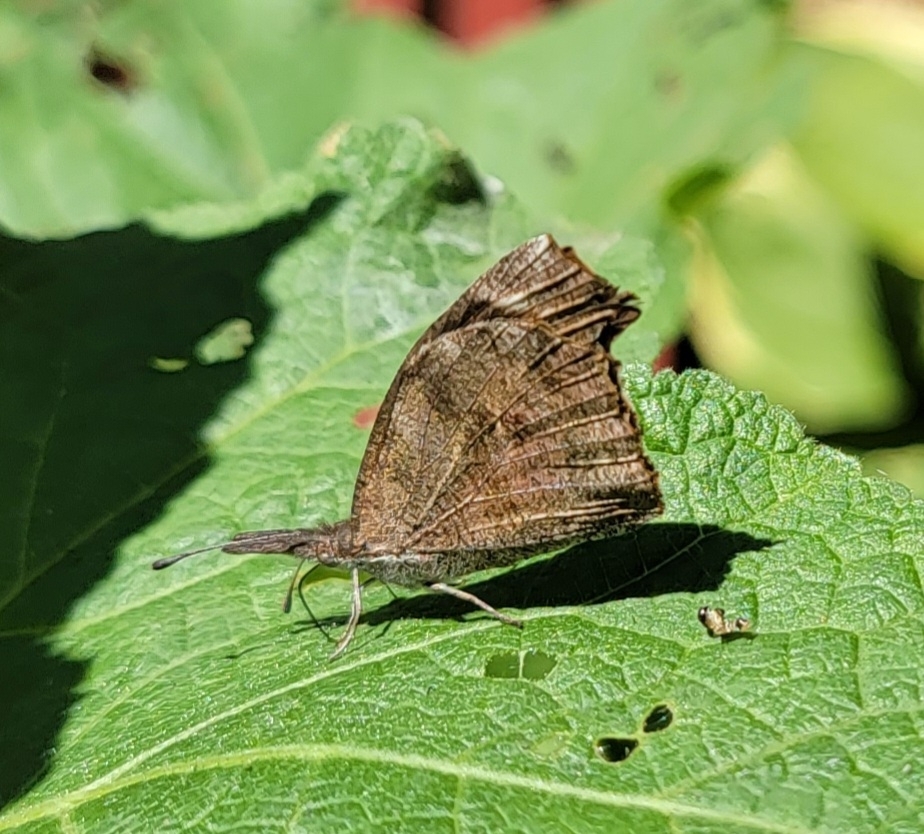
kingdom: Animalia
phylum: Arthropoda
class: Insecta
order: Lepidoptera
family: Nymphalidae
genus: Libytheana
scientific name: Libytheana carinenta
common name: American snout
